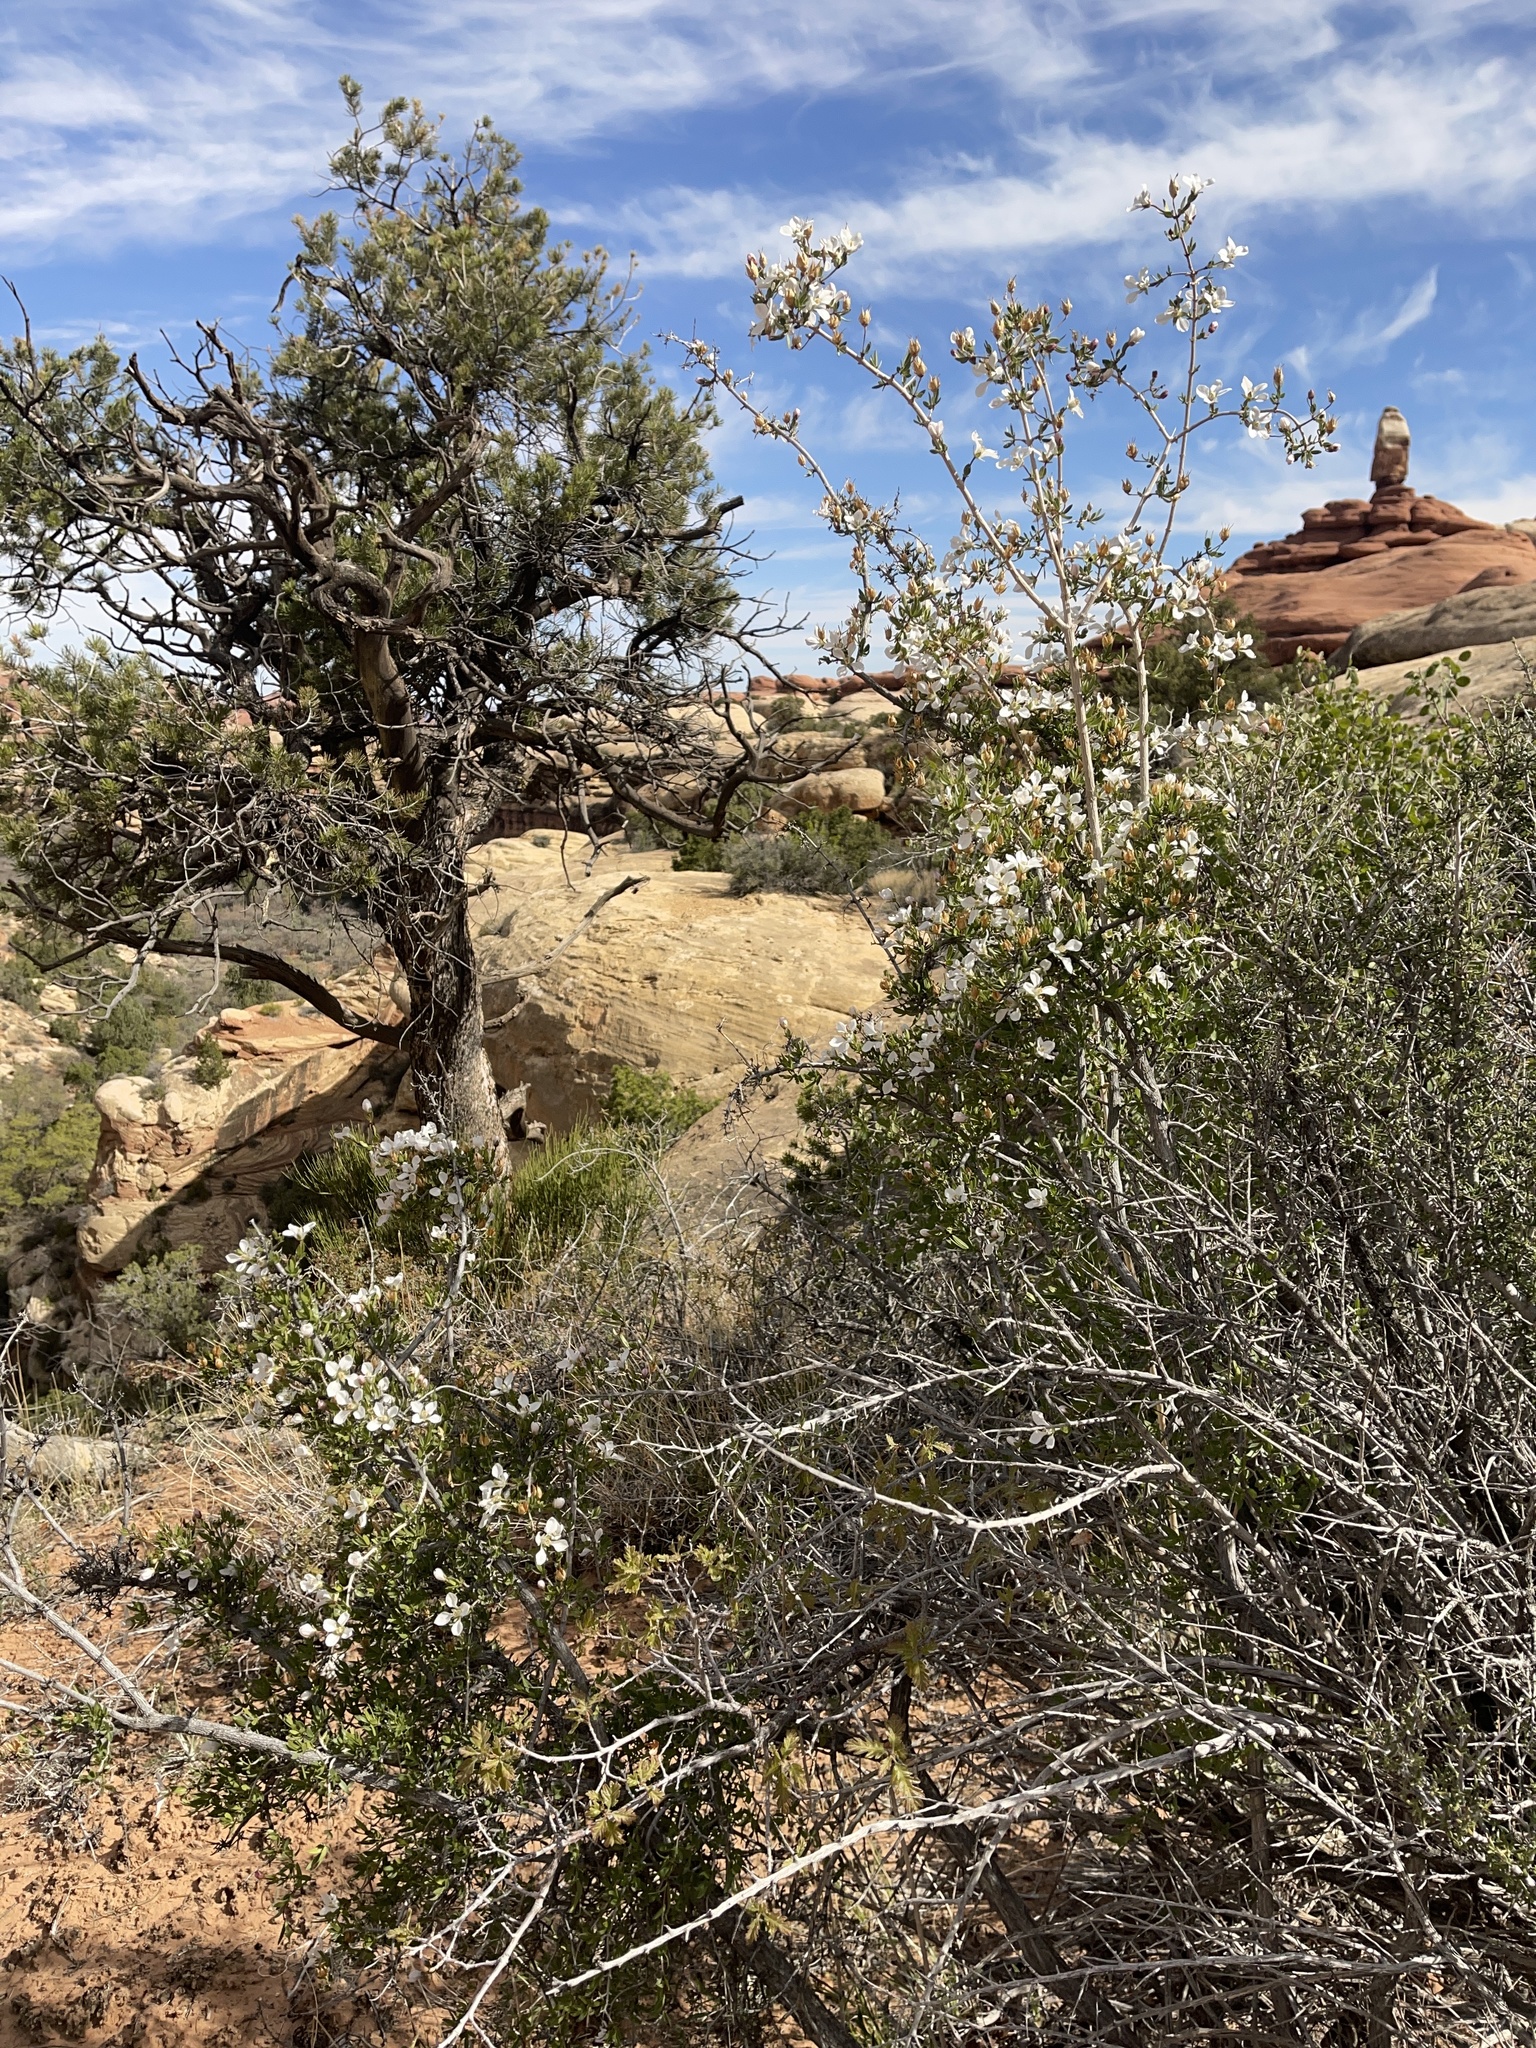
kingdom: Plantae
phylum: Tracheophyta
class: Magnoliopsida
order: Cornales
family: Hydrangeaceae
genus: Fendlera
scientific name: Fendlera rupicola
